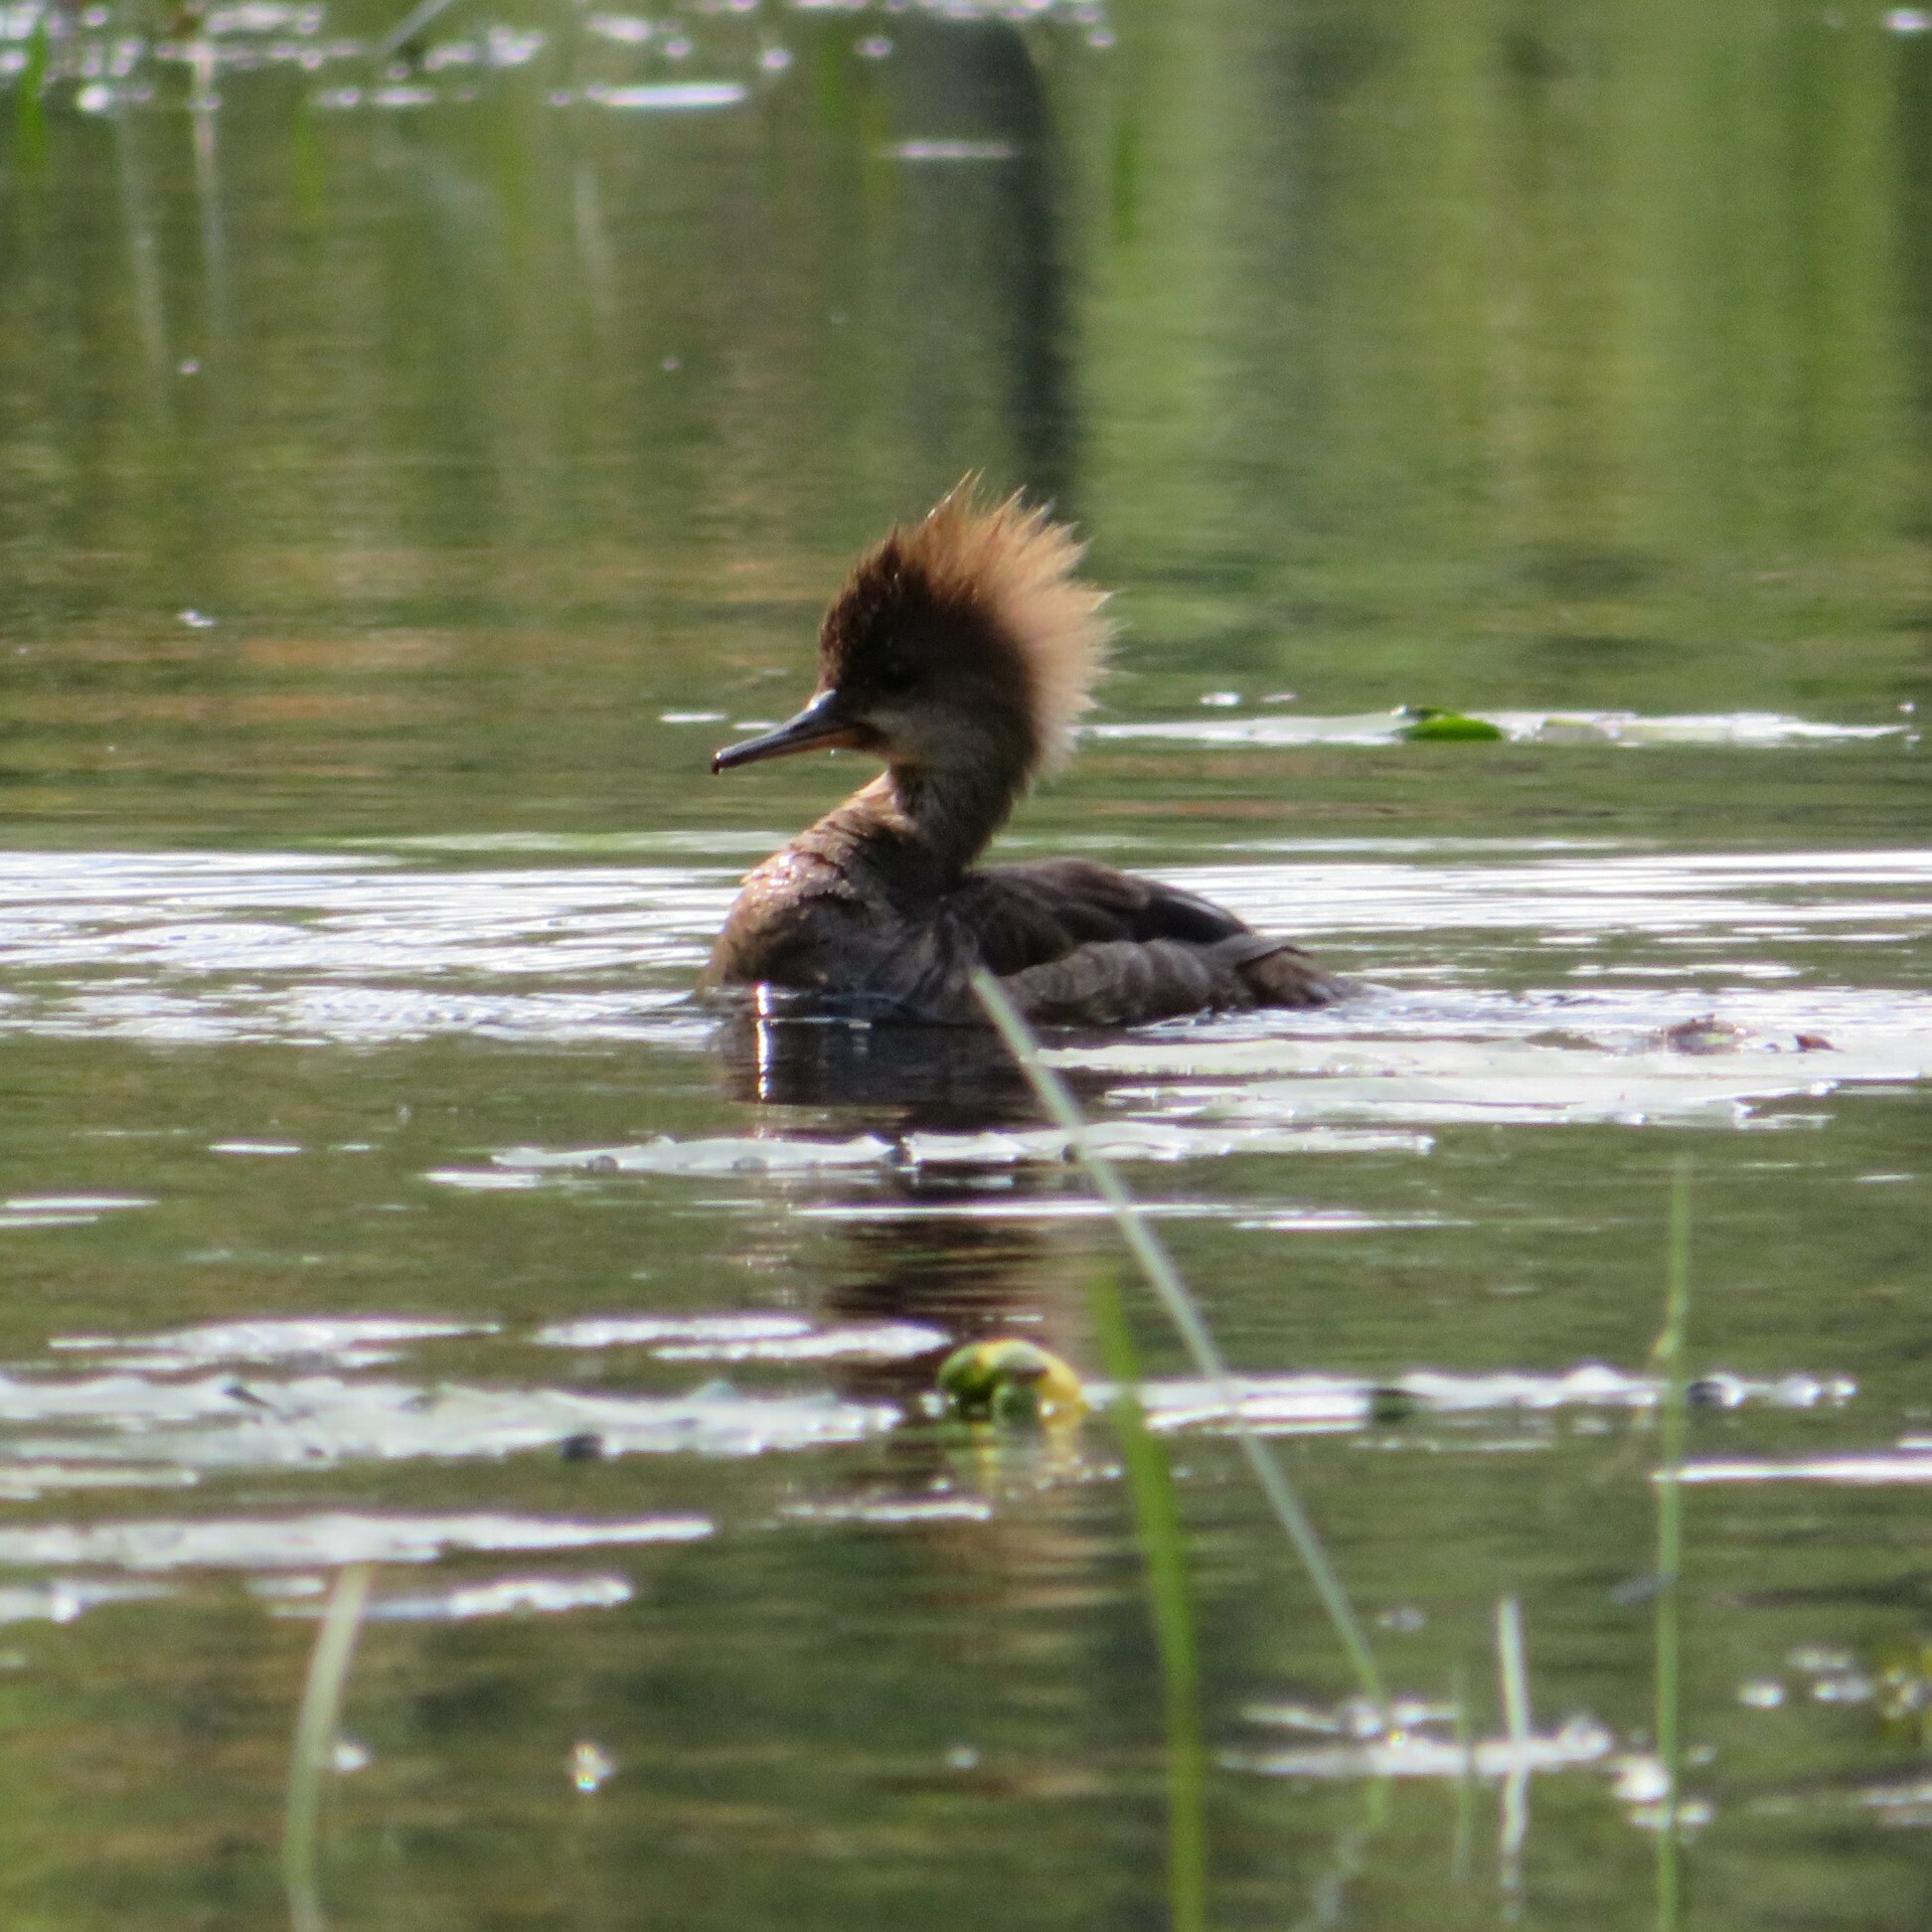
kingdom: Animalia
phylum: Chordata
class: Aves
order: Anseriformes
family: Anatidae
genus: Lophodytes
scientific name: Lophodytes cucullatus
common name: Hooded merganser
